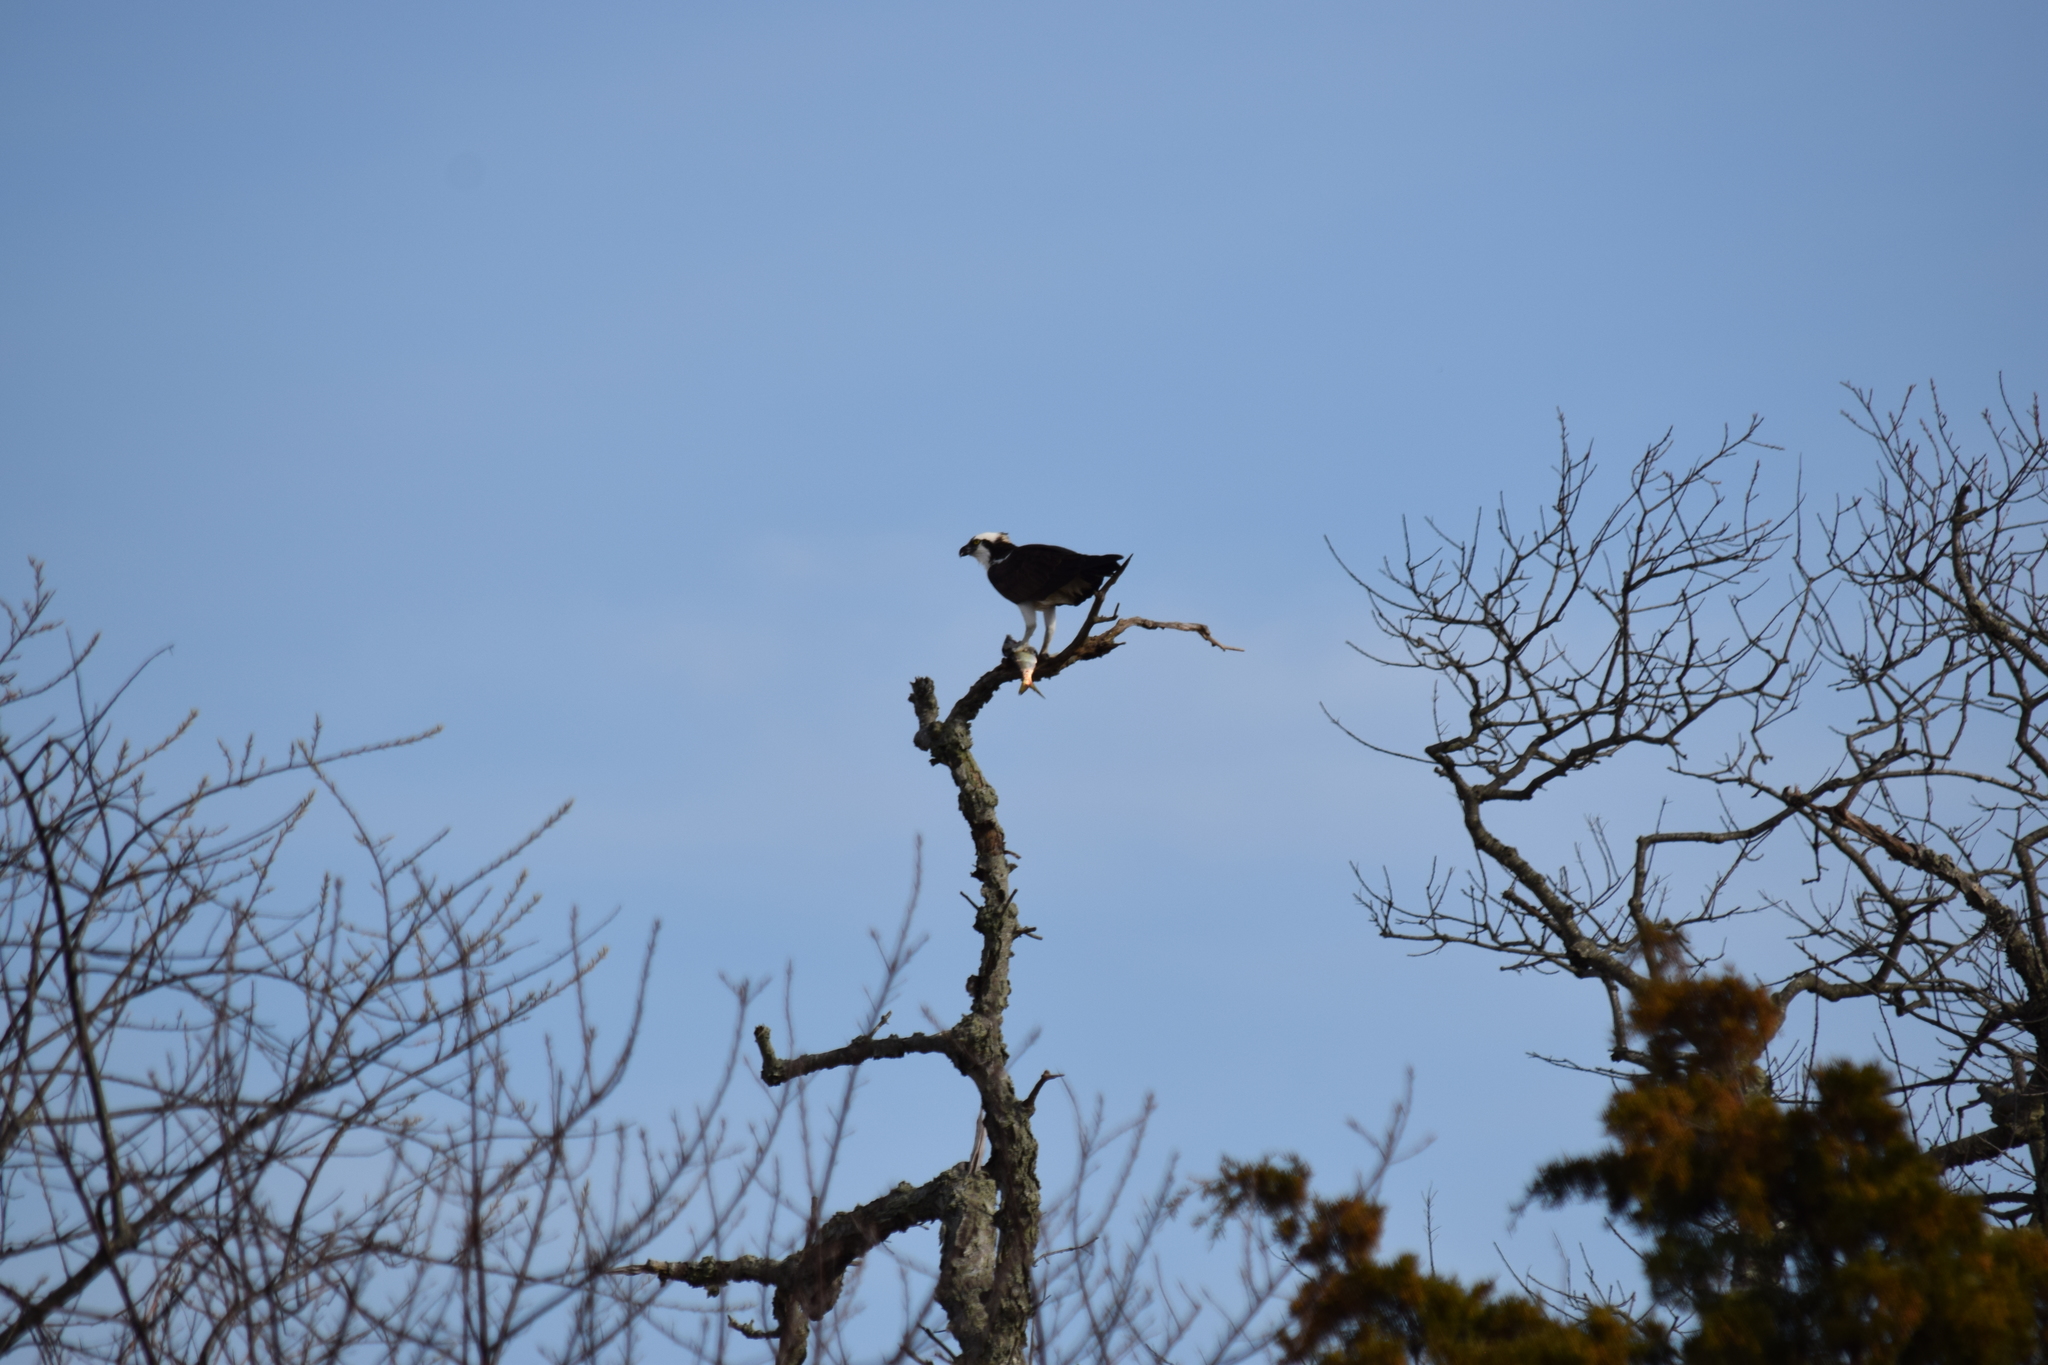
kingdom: Animalia
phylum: Chordata
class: Aves
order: Accipitriformes
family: Pandionidae
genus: Pandion
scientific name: Pandion haliaetus
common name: Osprey
